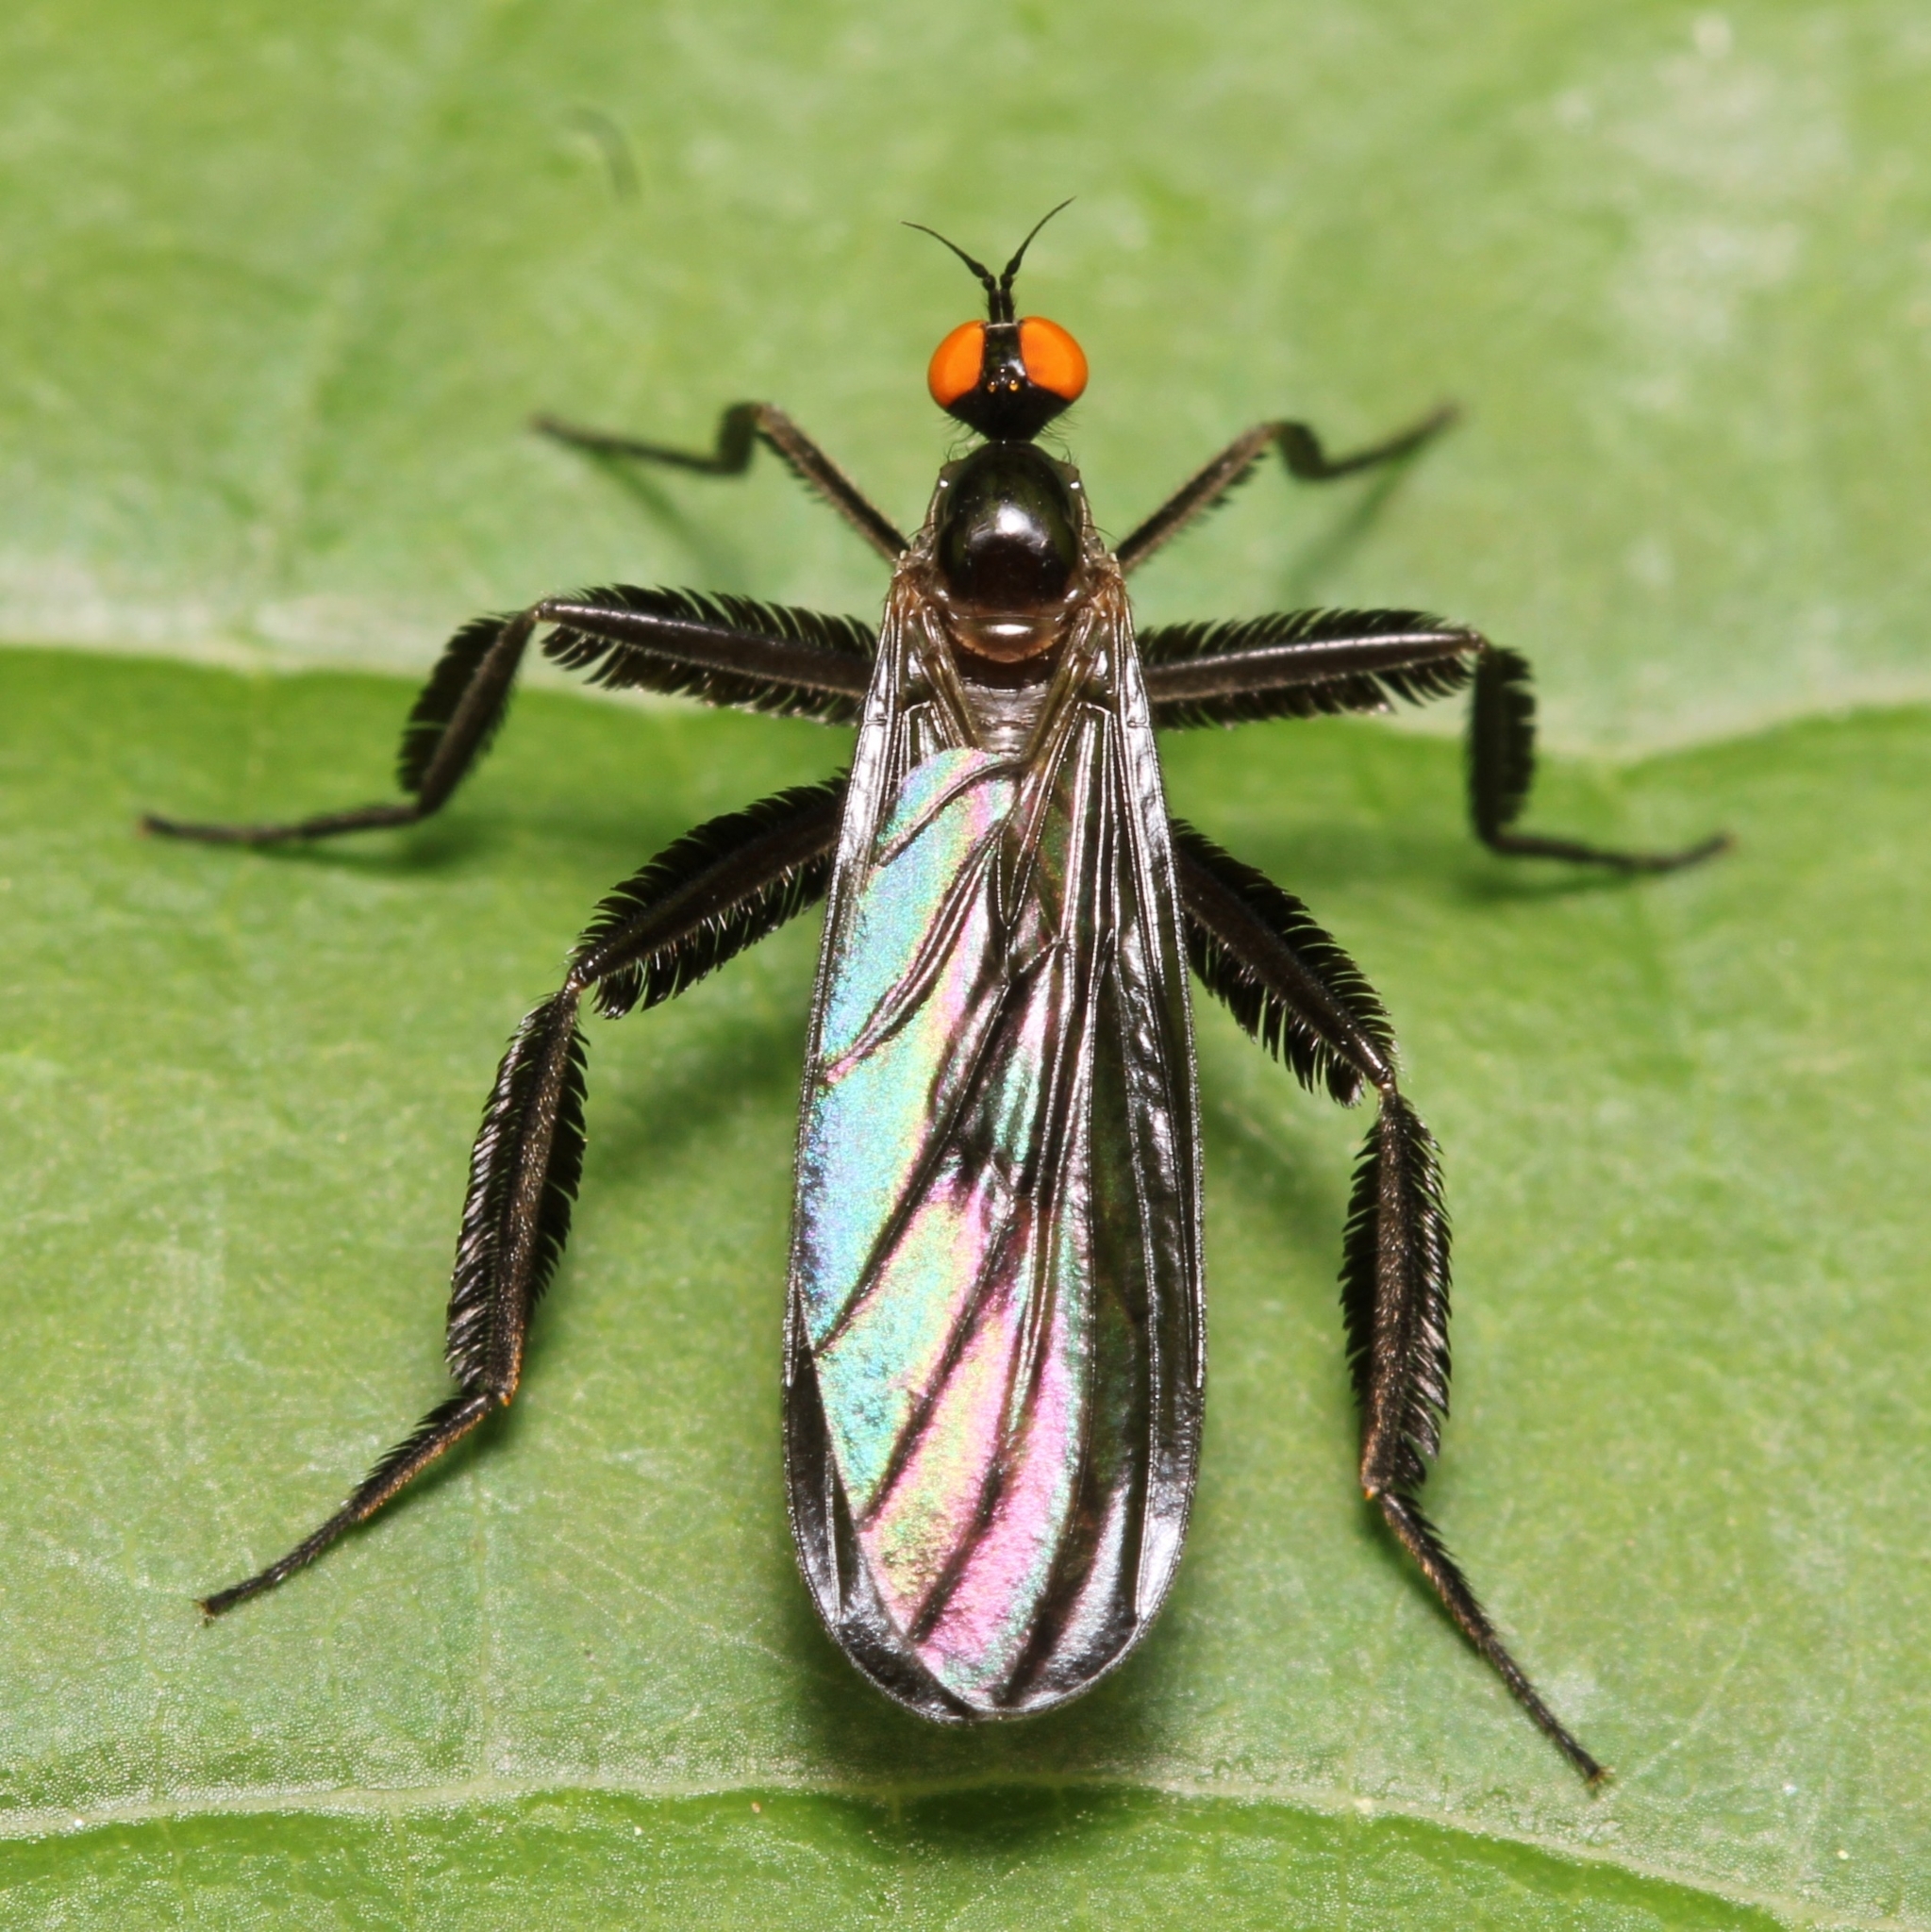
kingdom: Animalia
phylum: Arthropoda
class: Insecta
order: Diptera
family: Empididae
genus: Rhamphomyia
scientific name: Rhamphomyia longicauda
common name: Long-tailed dance fly
